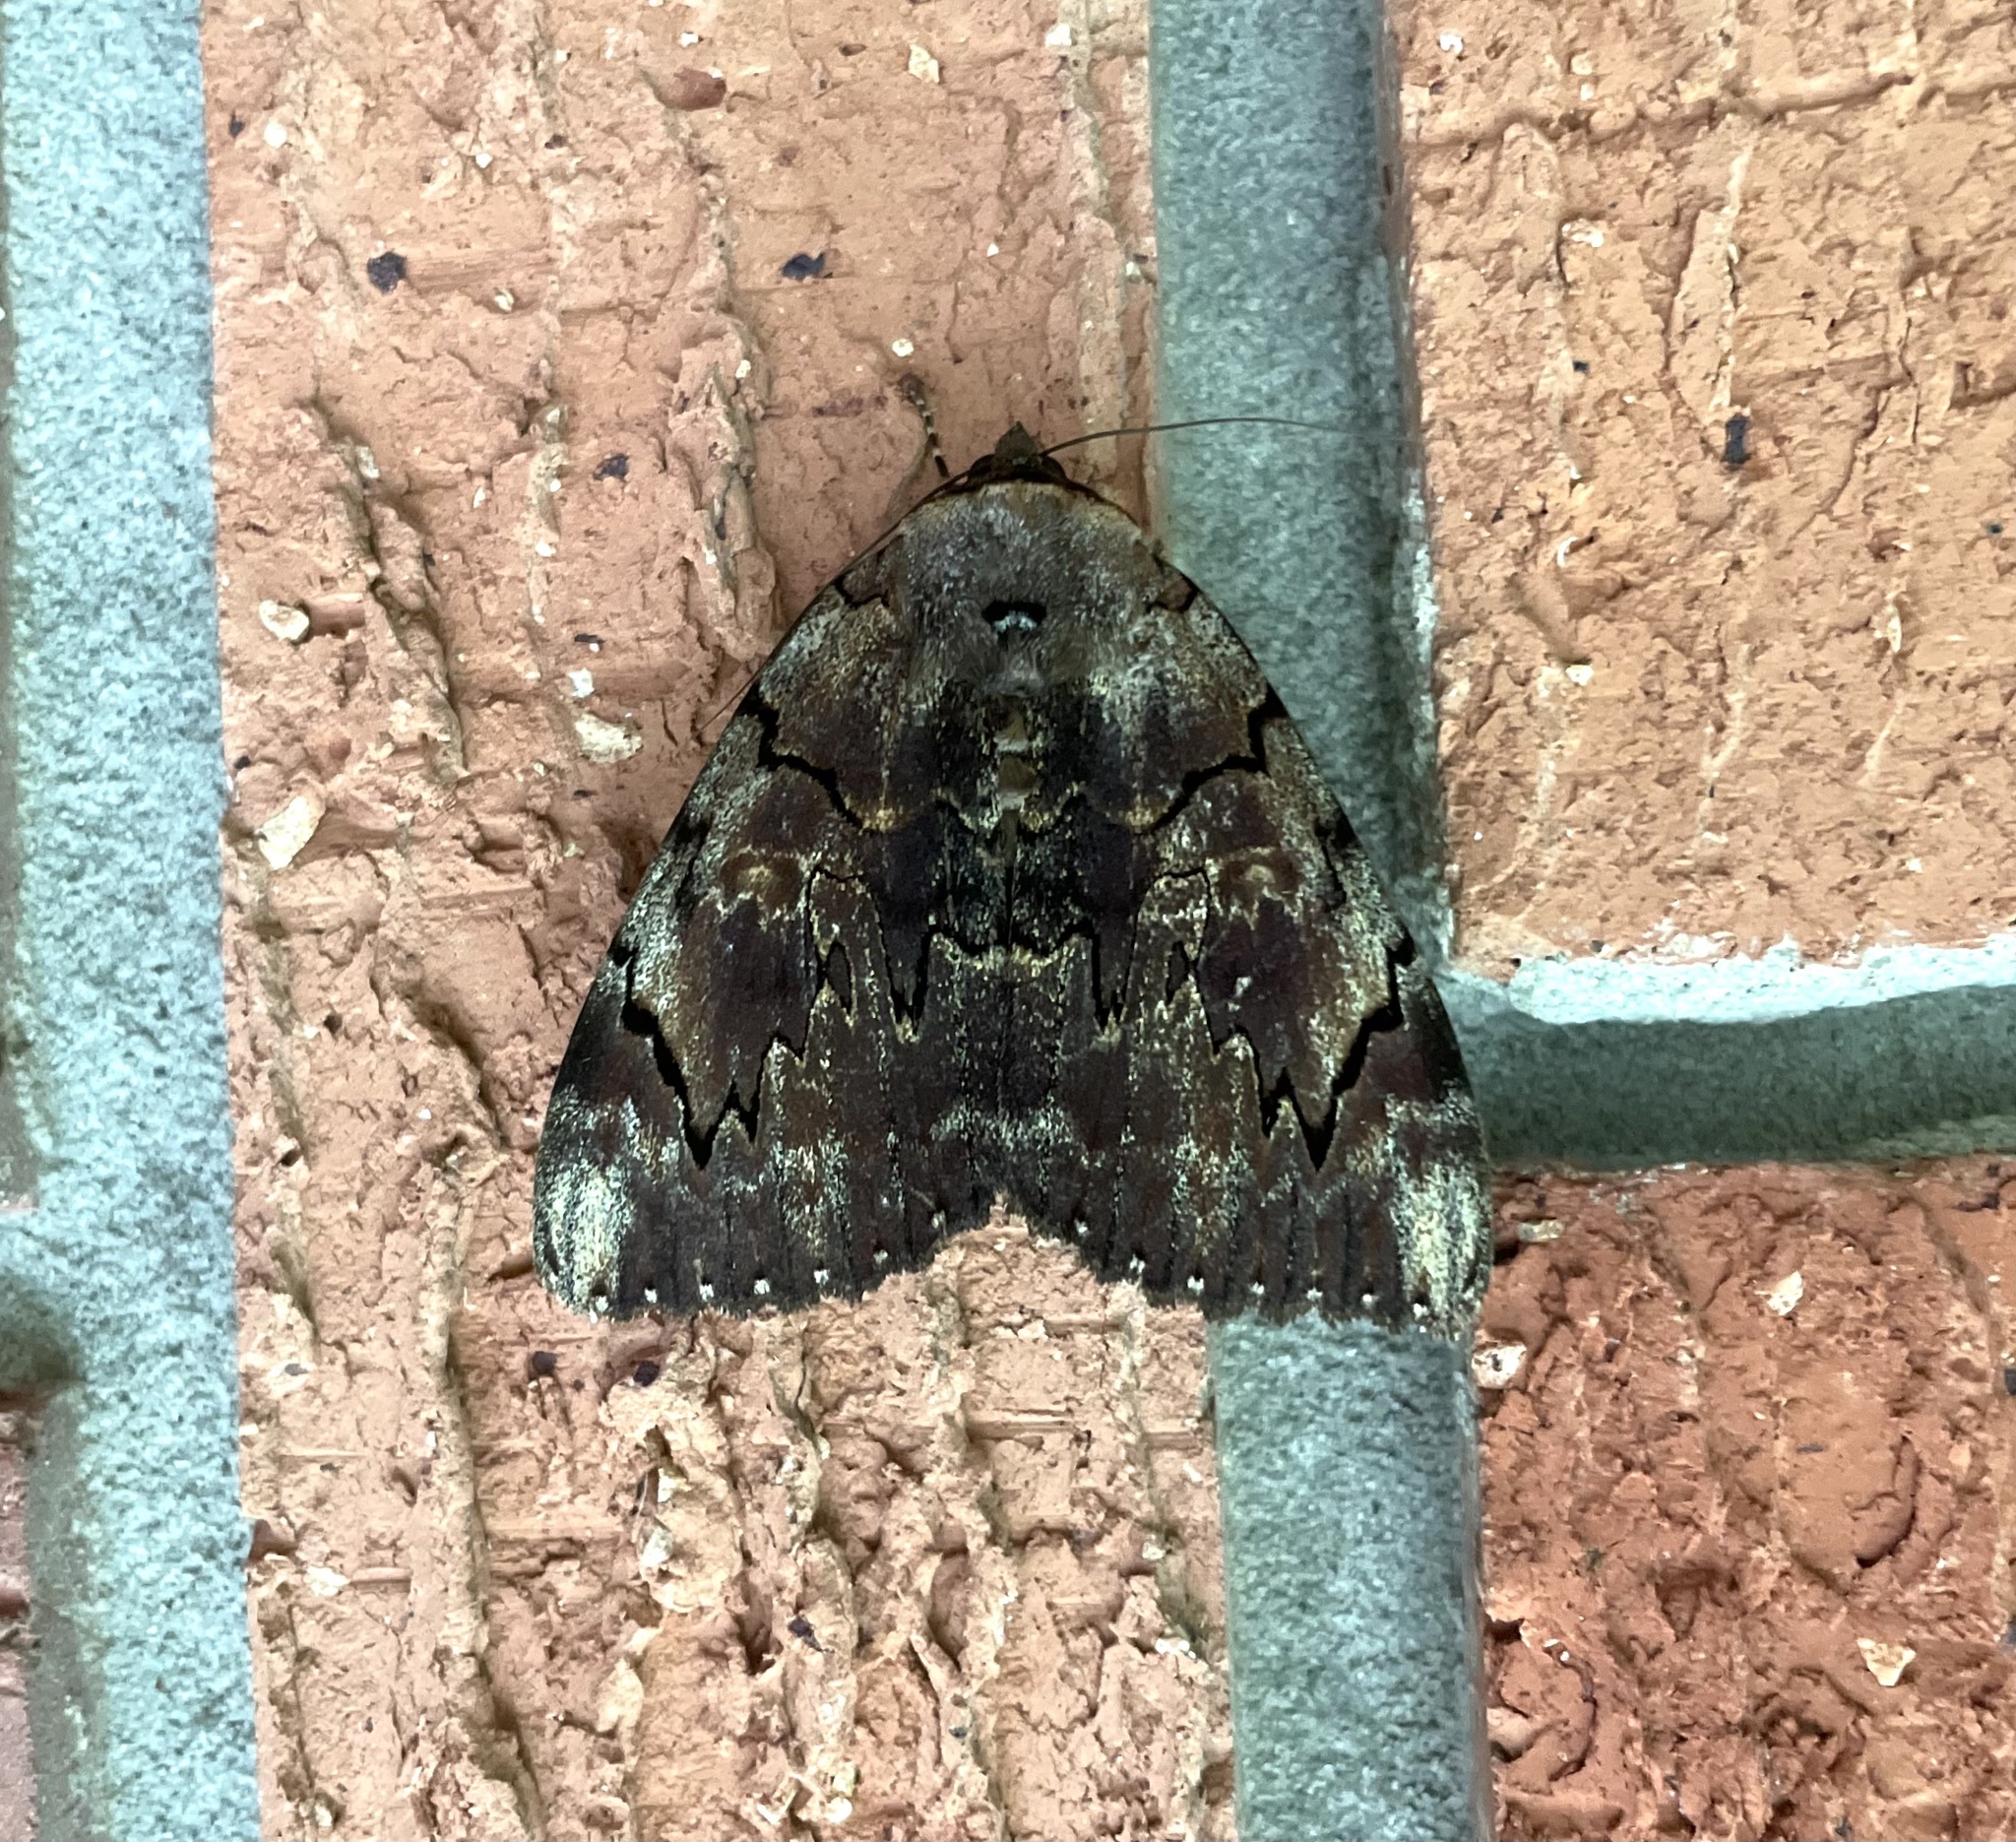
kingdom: Animalia
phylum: Arthropoda
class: Insecta
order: Lepidoptera
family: Erebidae
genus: Catocala
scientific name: Catocala carissima
